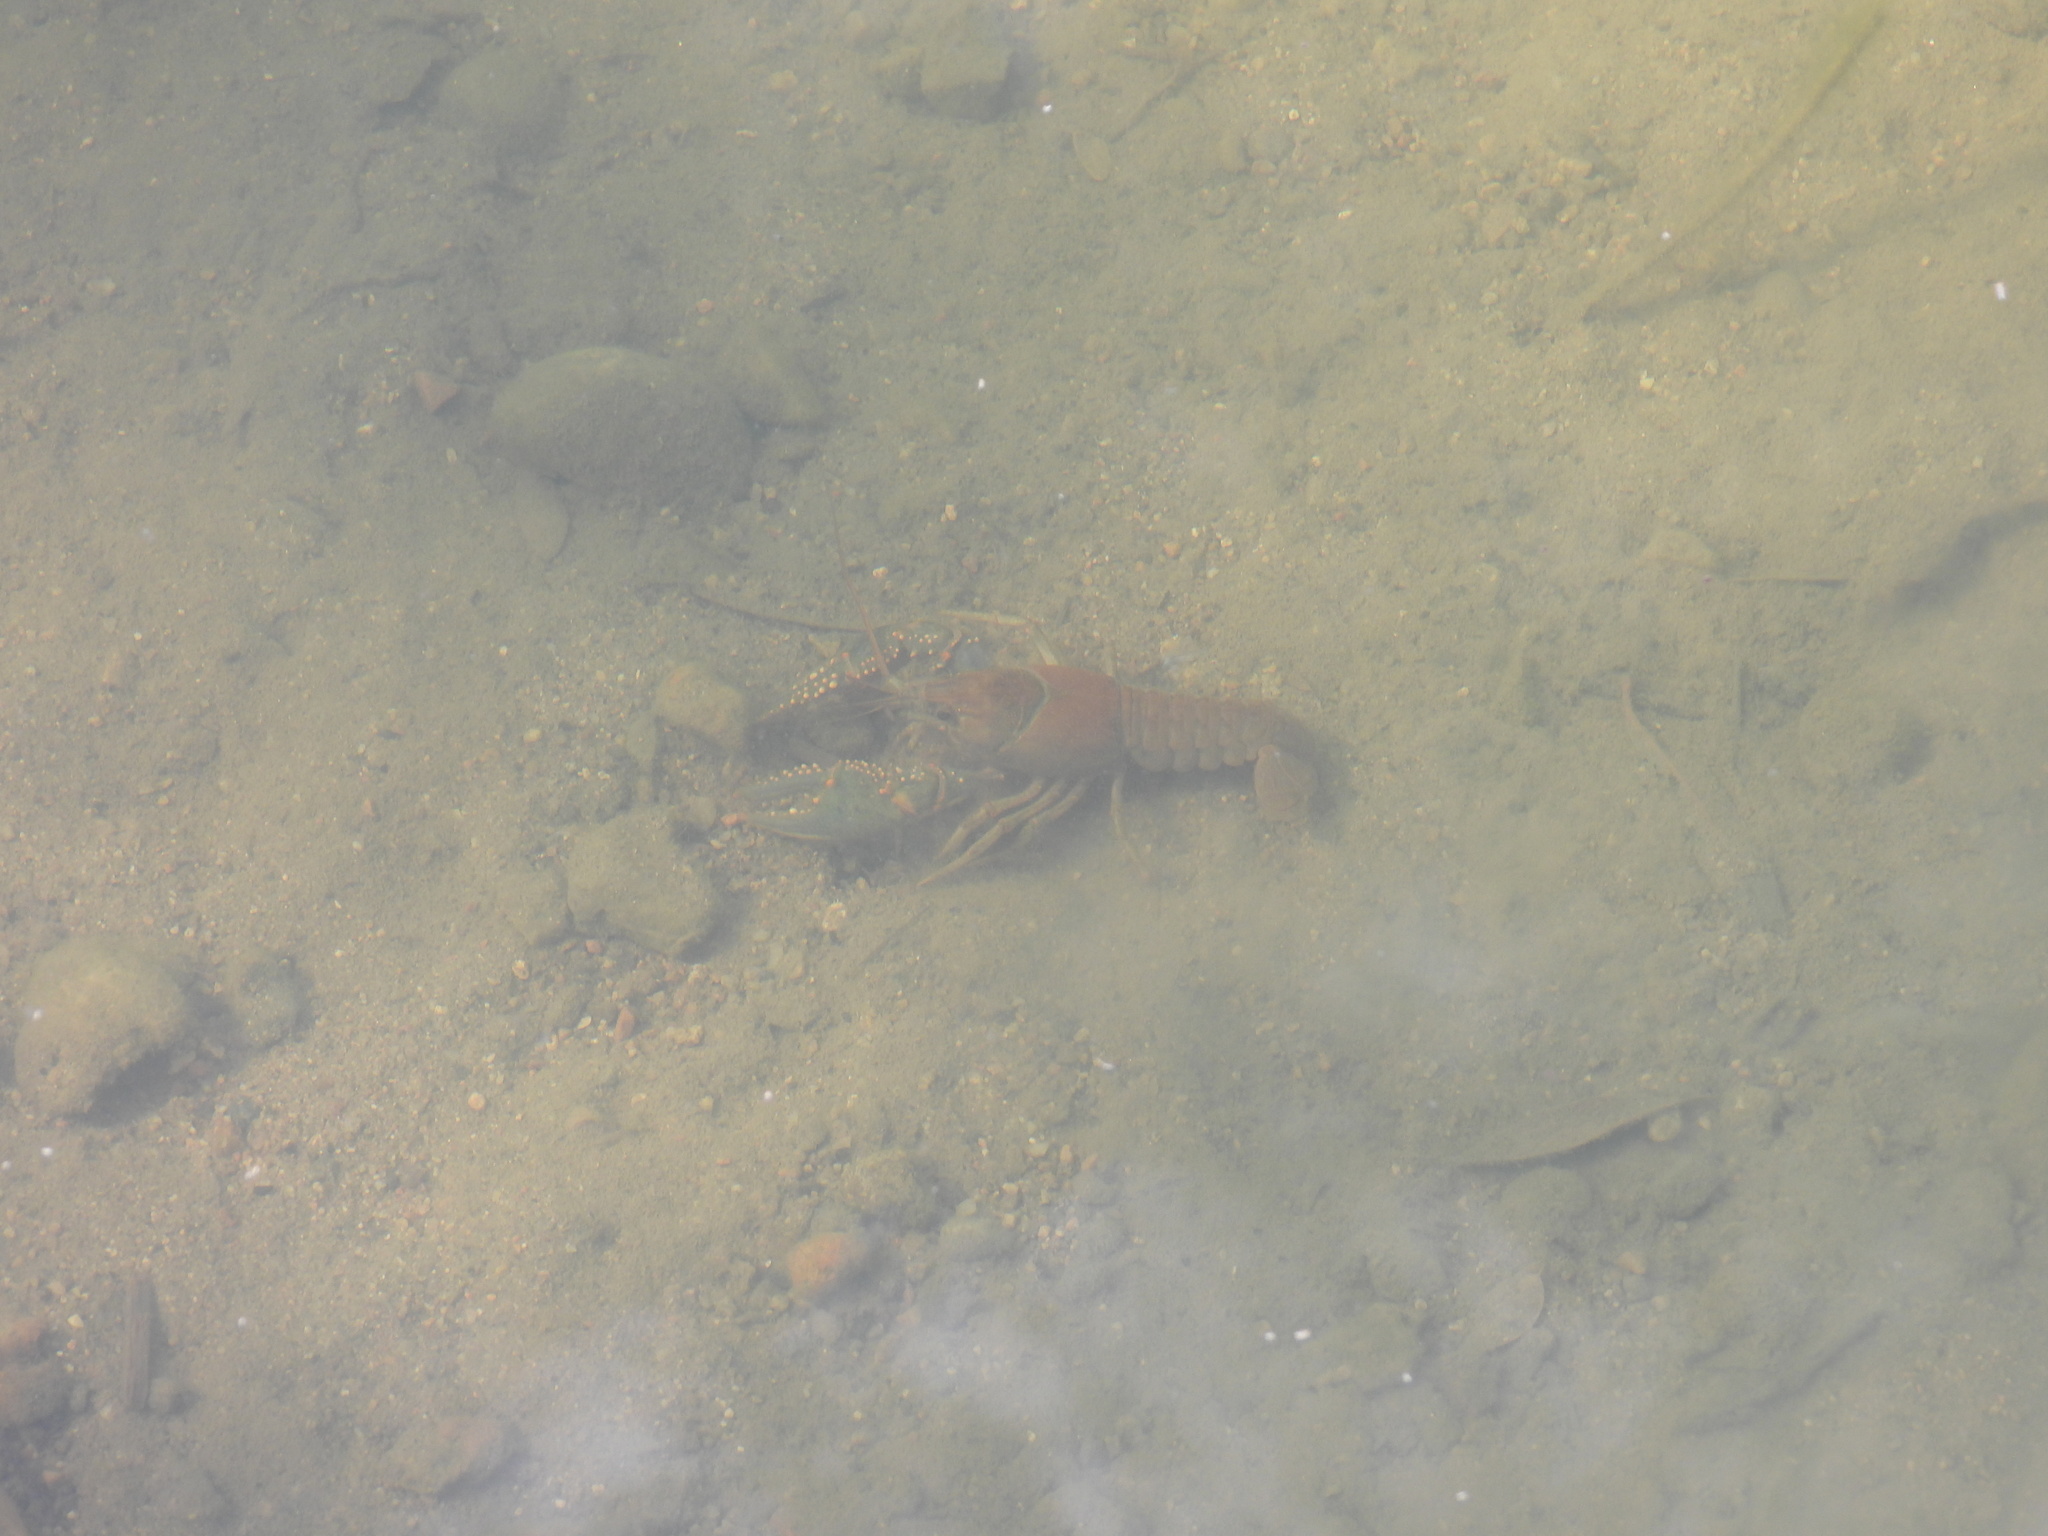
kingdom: Animalia
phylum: Arthropoda
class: Malacostraca
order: Decapoda
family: Cambaridae
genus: Faxonius
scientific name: Faxonius virilis
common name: Virile crayfish
